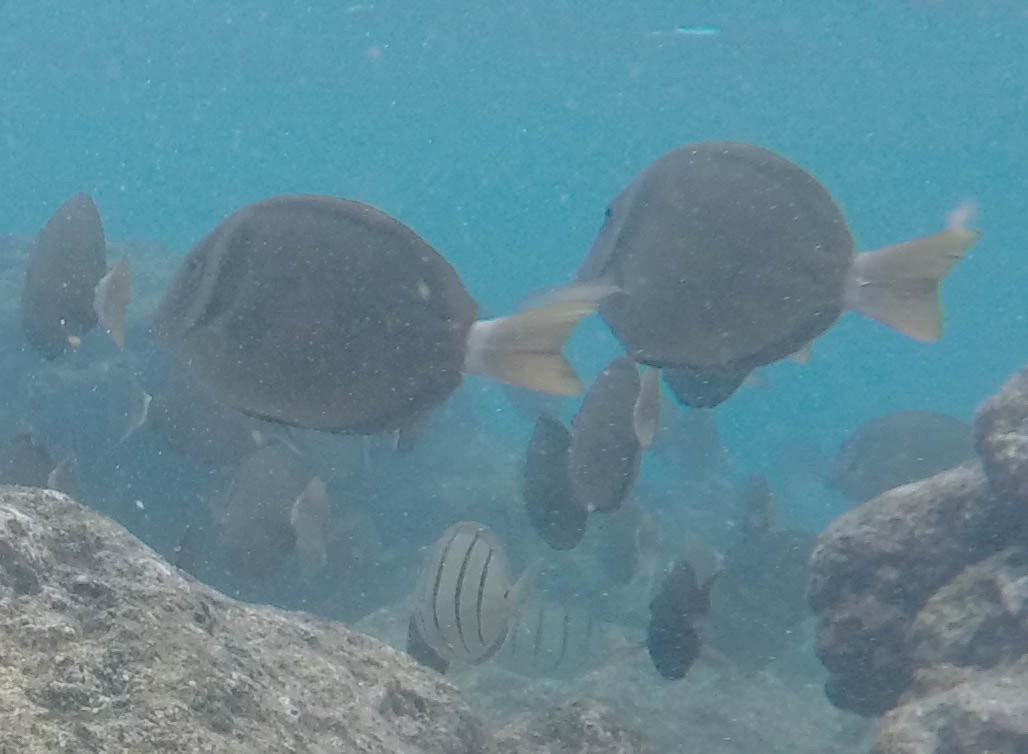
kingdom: Animalia
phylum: Chordata
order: Perciformes
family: Acanthuridae
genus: Acanthurus
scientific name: Acanthurus leucopareius
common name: Head-band surgeonfish
